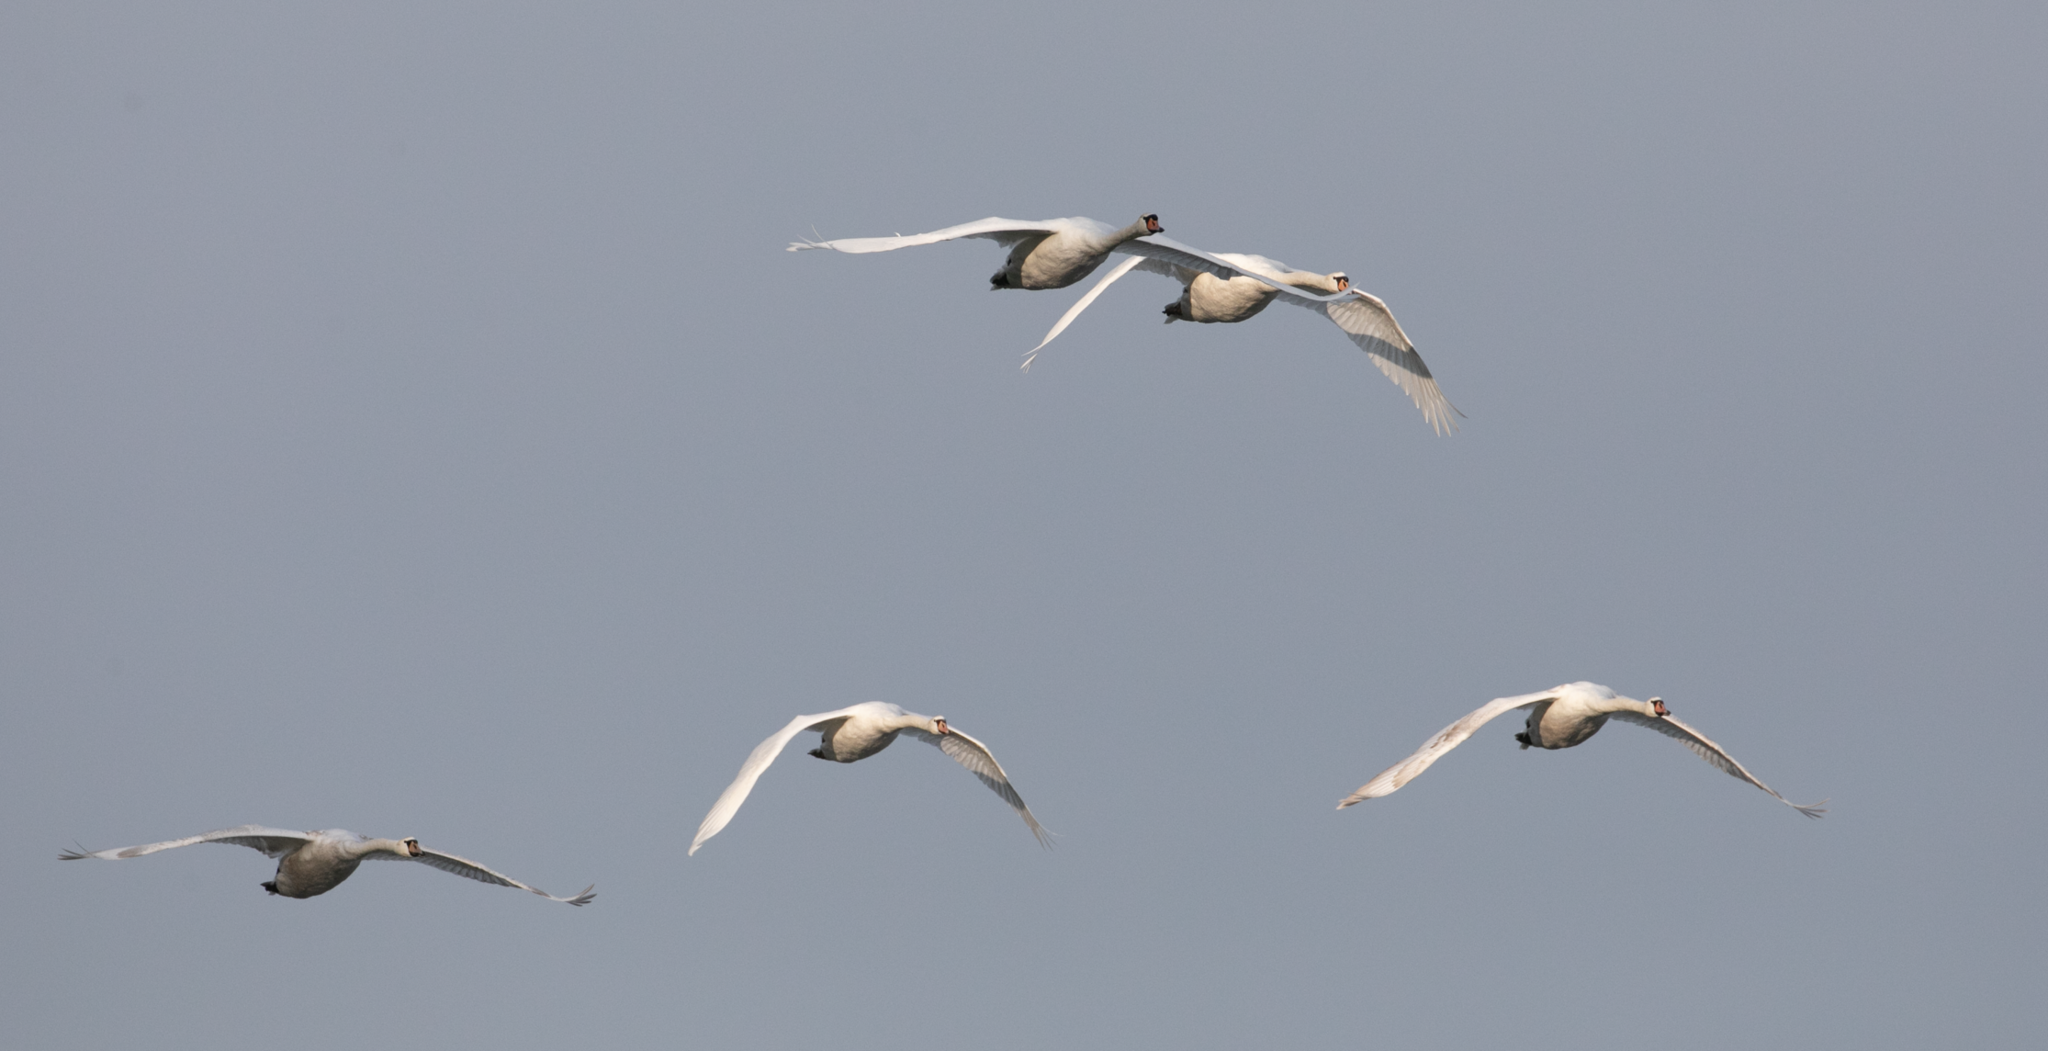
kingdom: Animalia
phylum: Chordata
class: Aves
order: Anseriformes
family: Anatidae
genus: Cygnus
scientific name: Cygnus olor
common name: Mute swan
